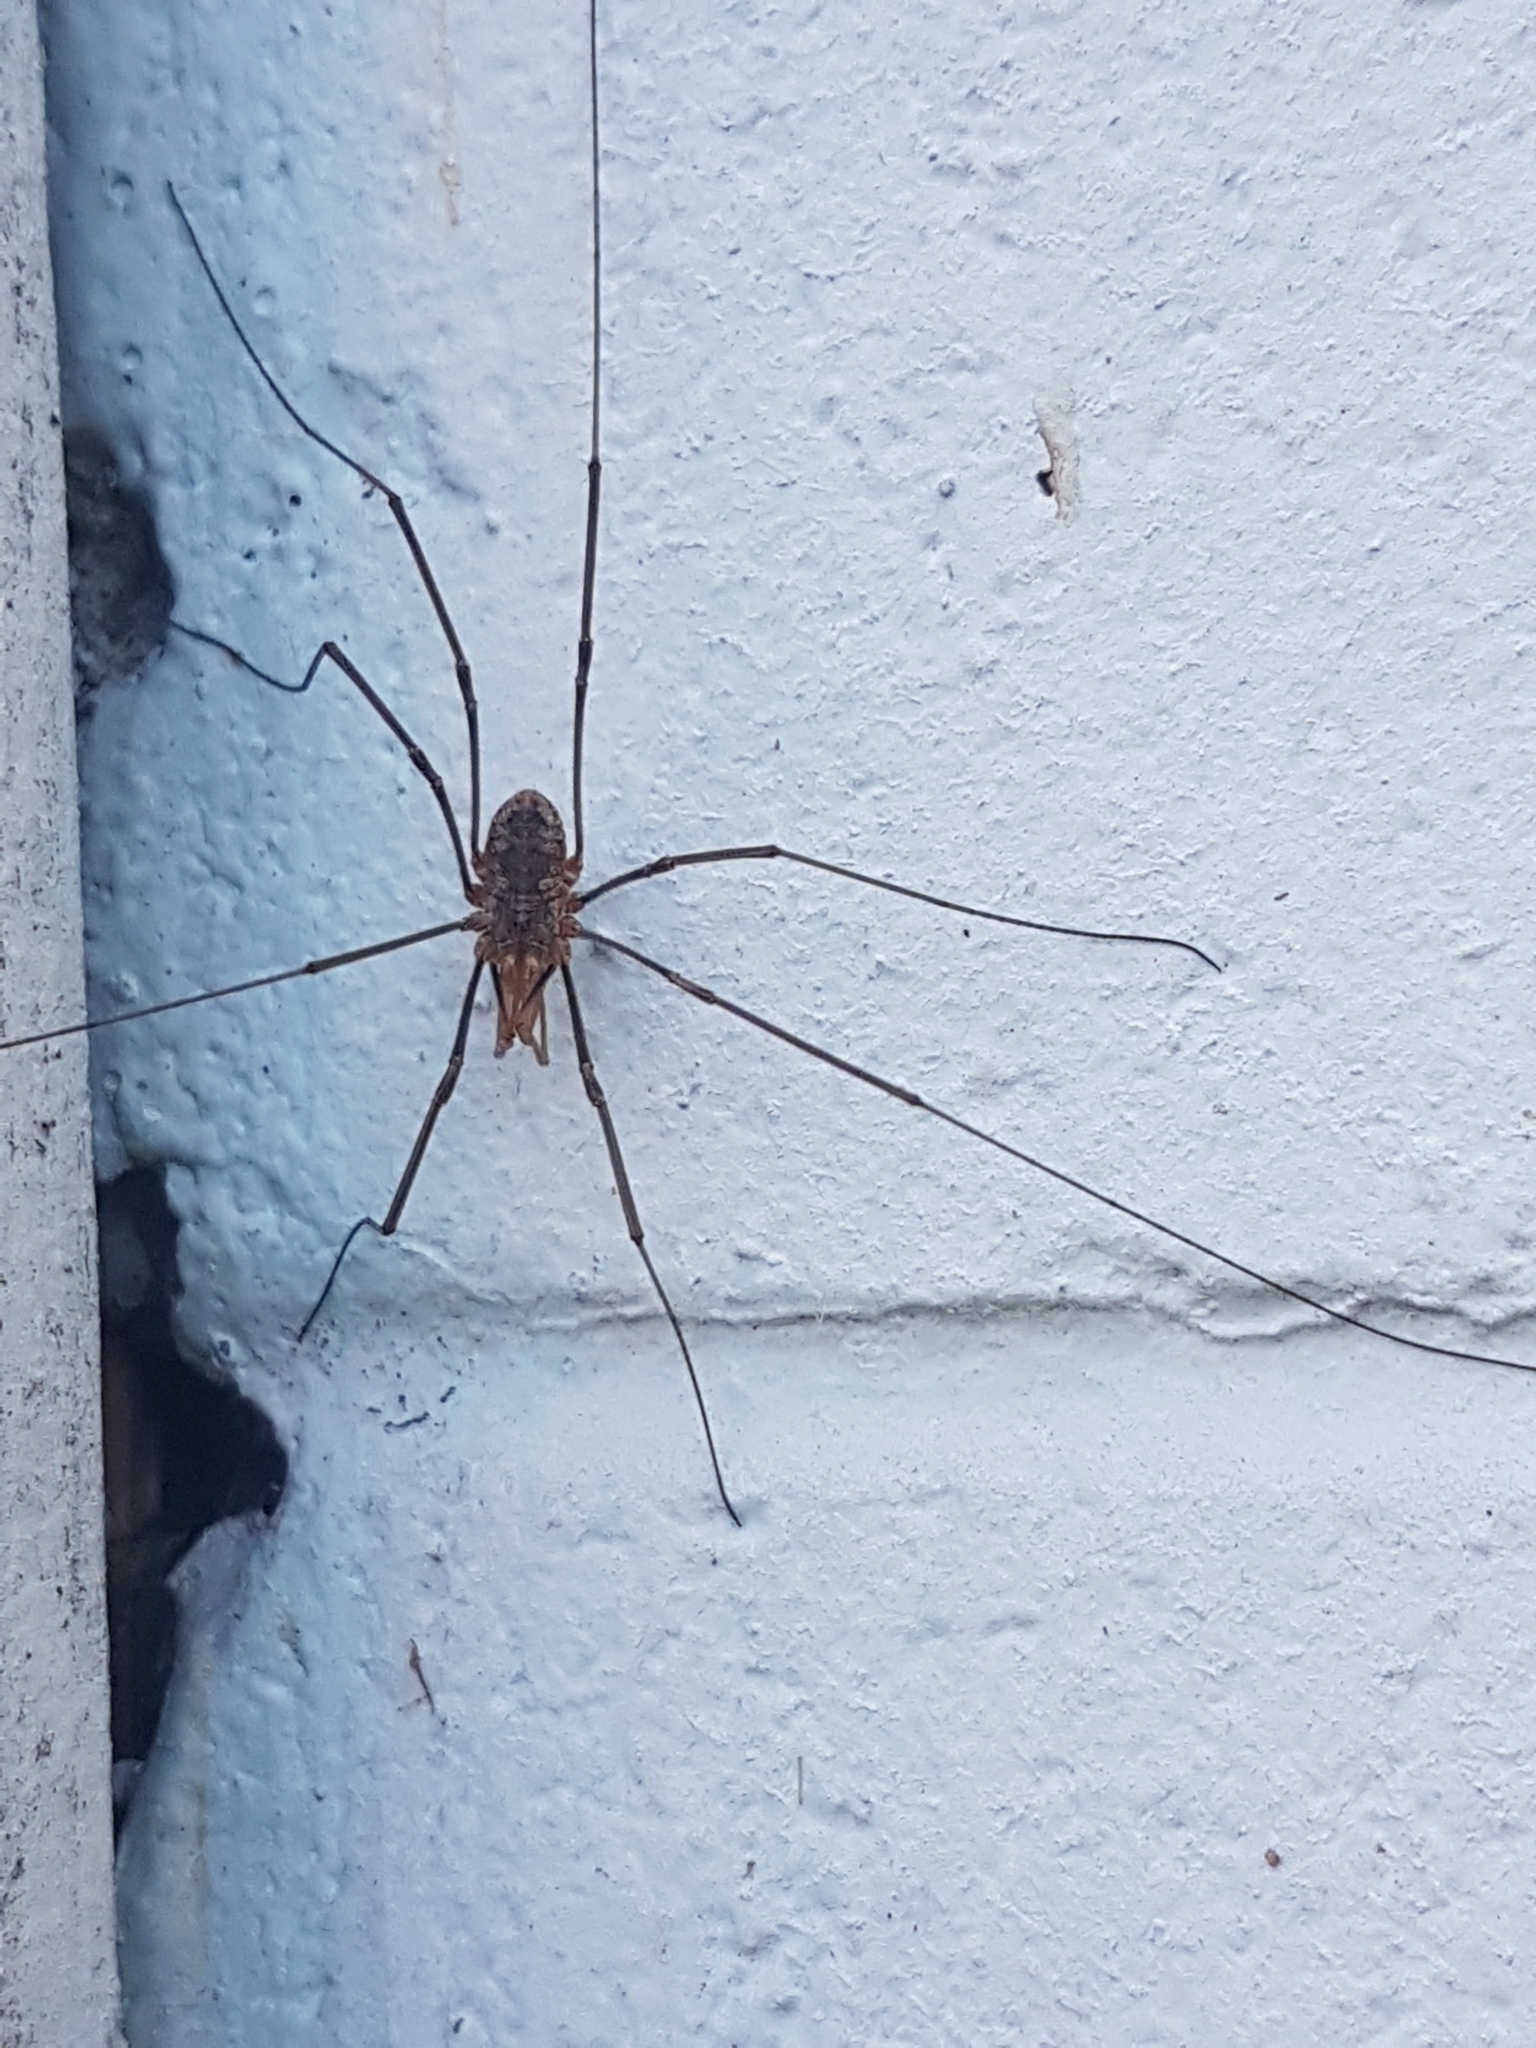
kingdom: Animalia
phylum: Arthropoda
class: Arachnida
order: Opiliones
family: Phalangiidae
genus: Phalangium
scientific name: Phalangium opilio
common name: Daddy longleg
